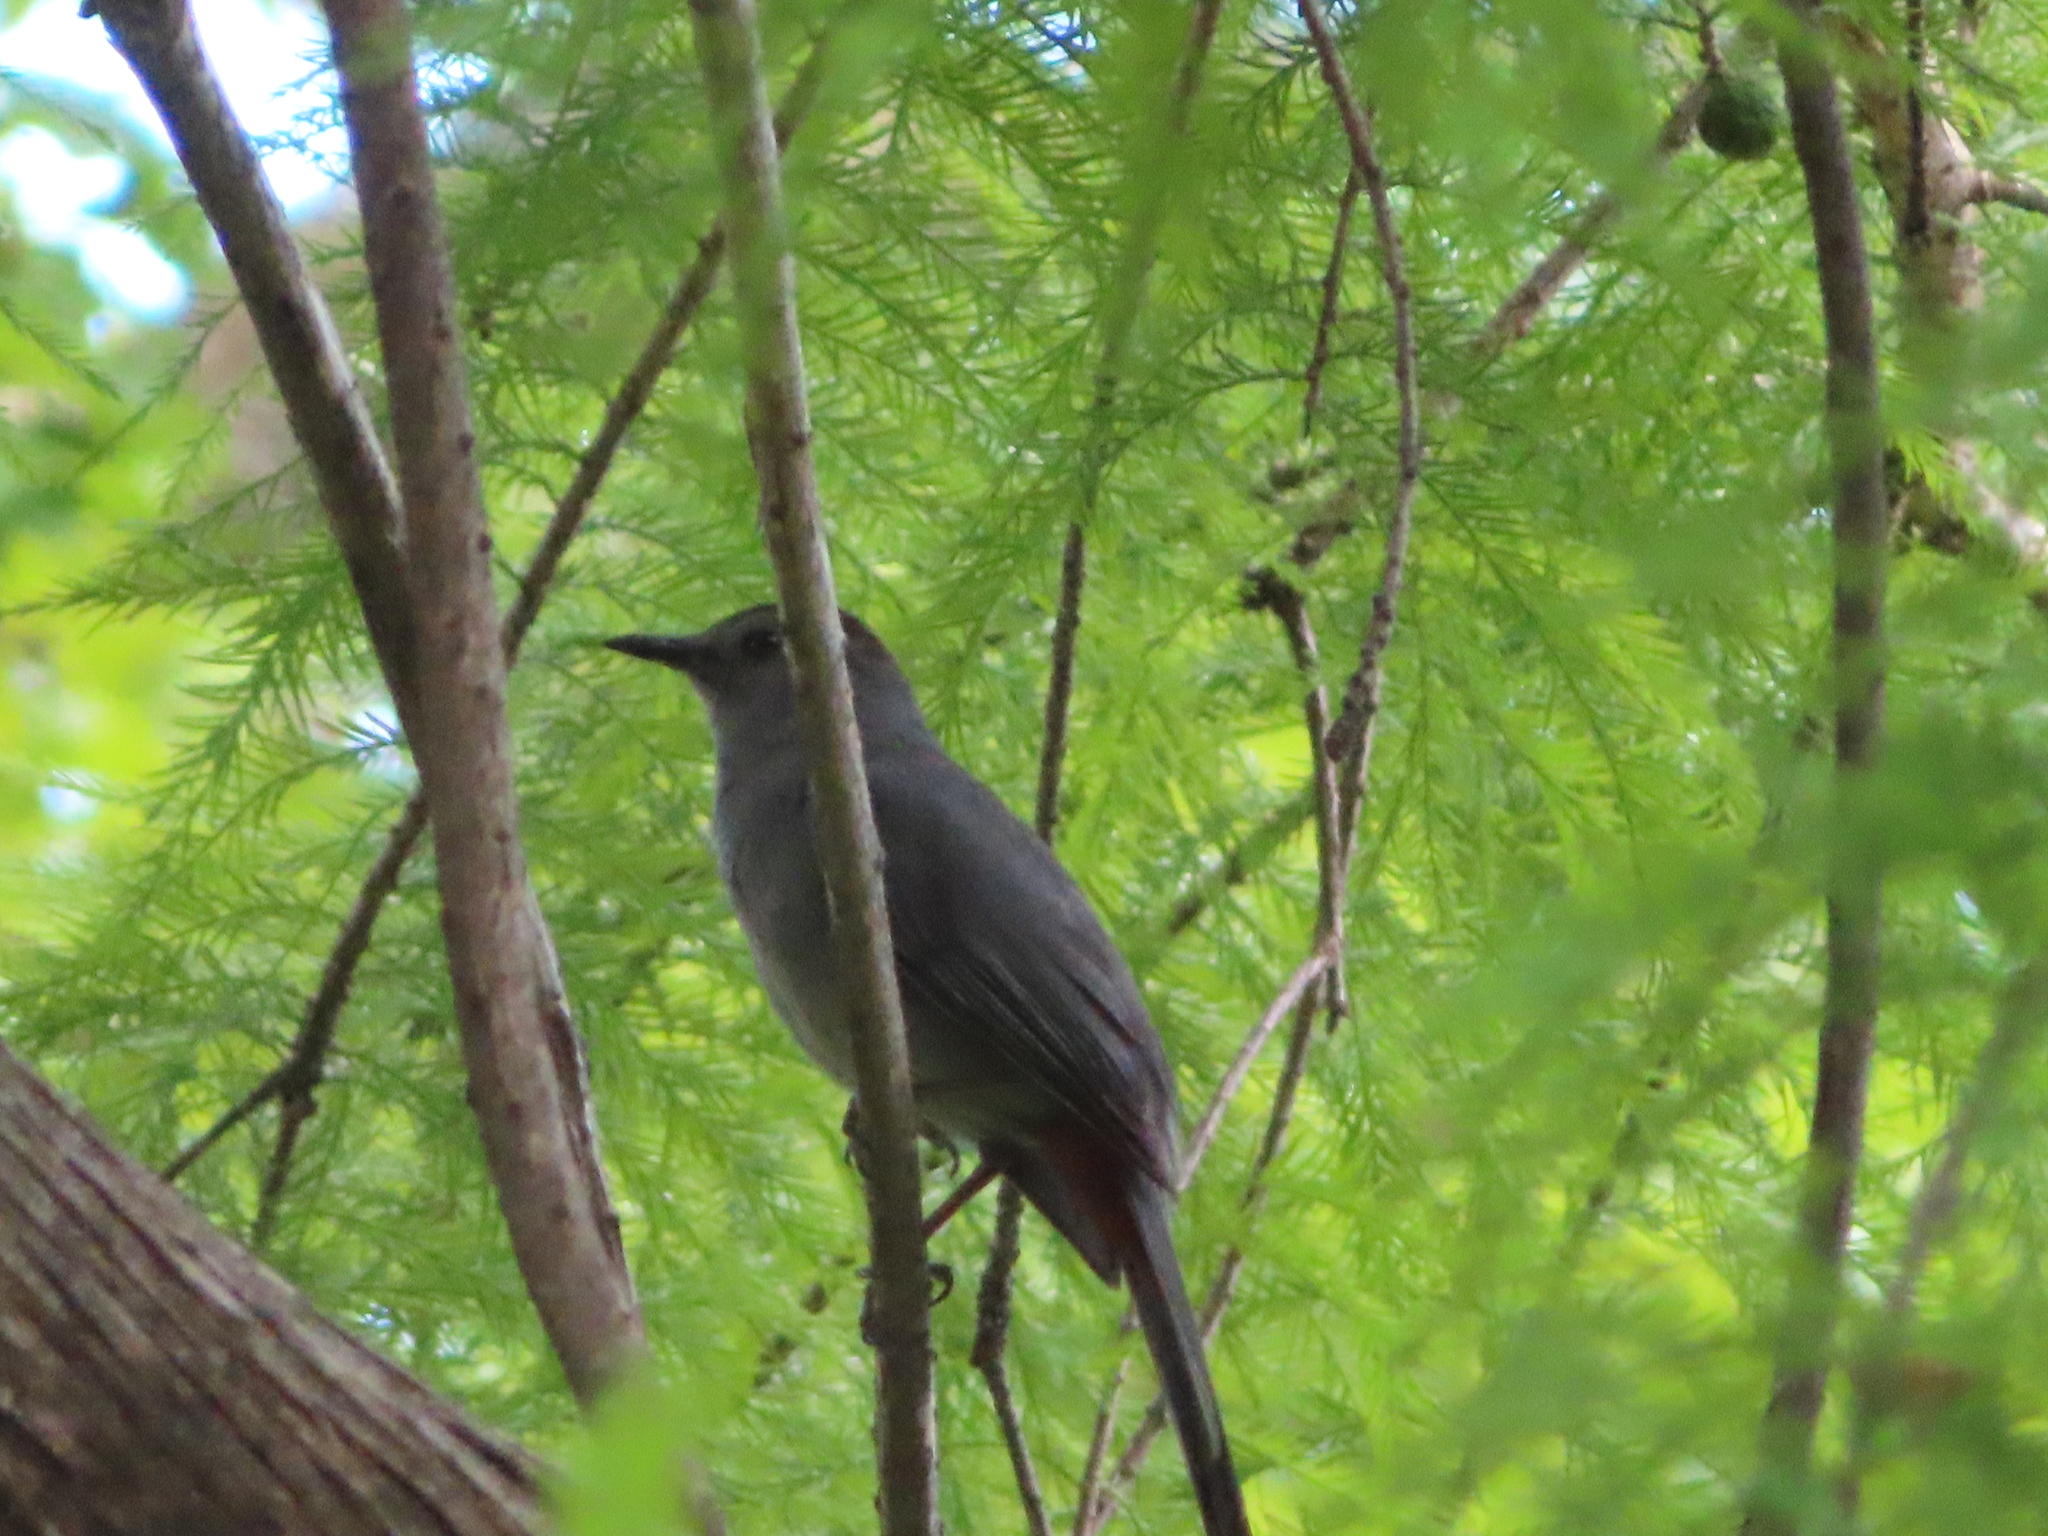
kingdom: Animalia
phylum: Chordata
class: Aves
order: Passeriformes
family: Mimidae
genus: Dumetella
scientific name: Dumetella carolinensis
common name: Gray catbird
